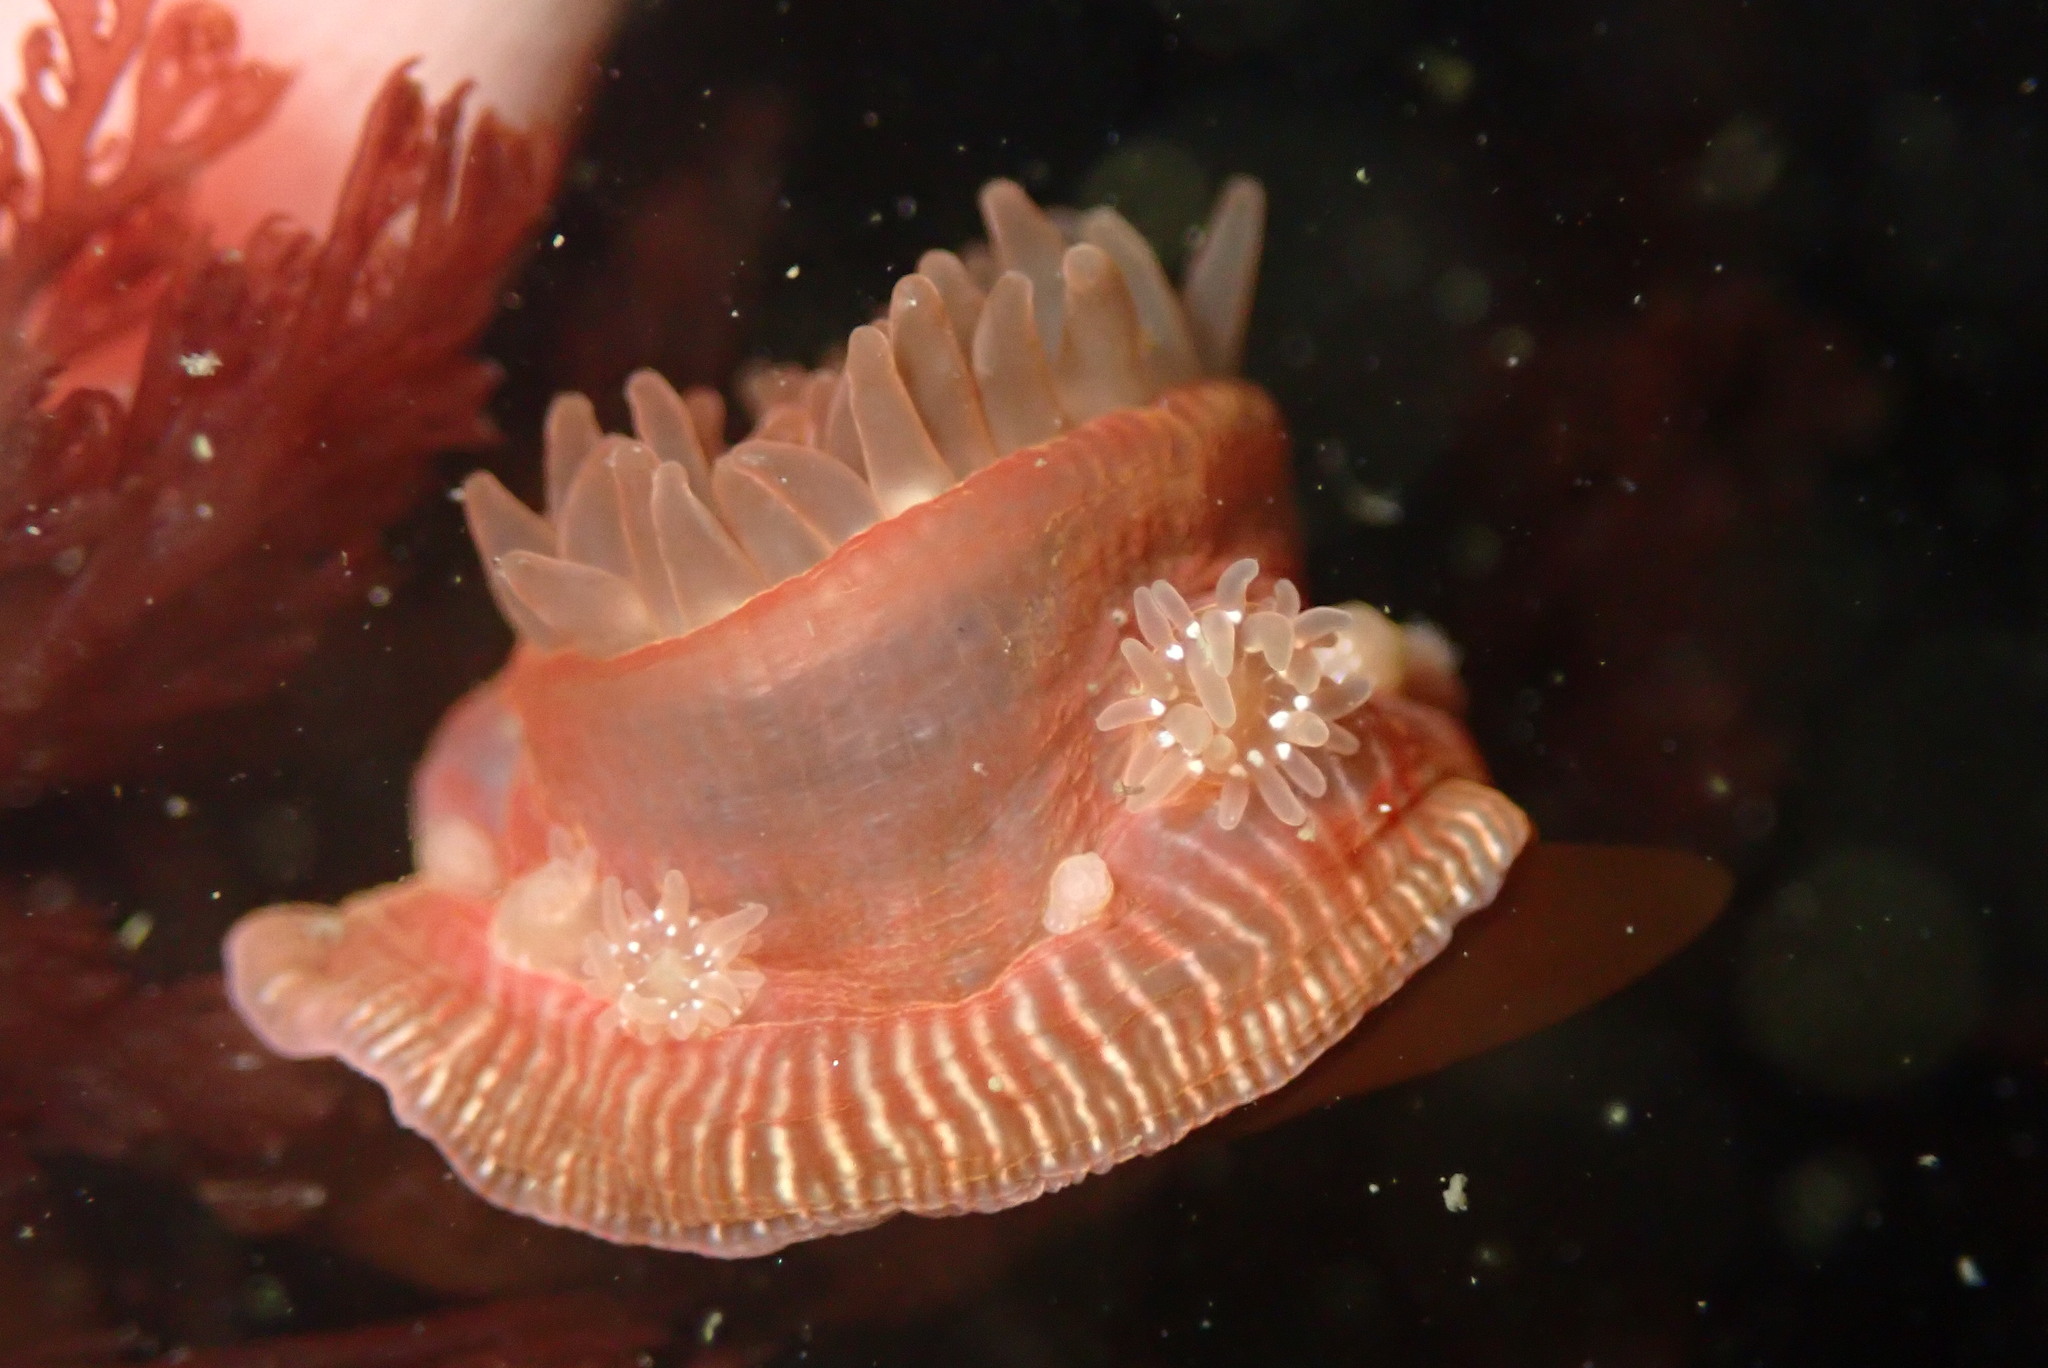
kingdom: Animalia
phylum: Cnidaria
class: Anthozoa
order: Actiniaria
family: Actiniidae
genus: Epiactis
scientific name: Epiactis prolifera
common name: Brooding anemone
